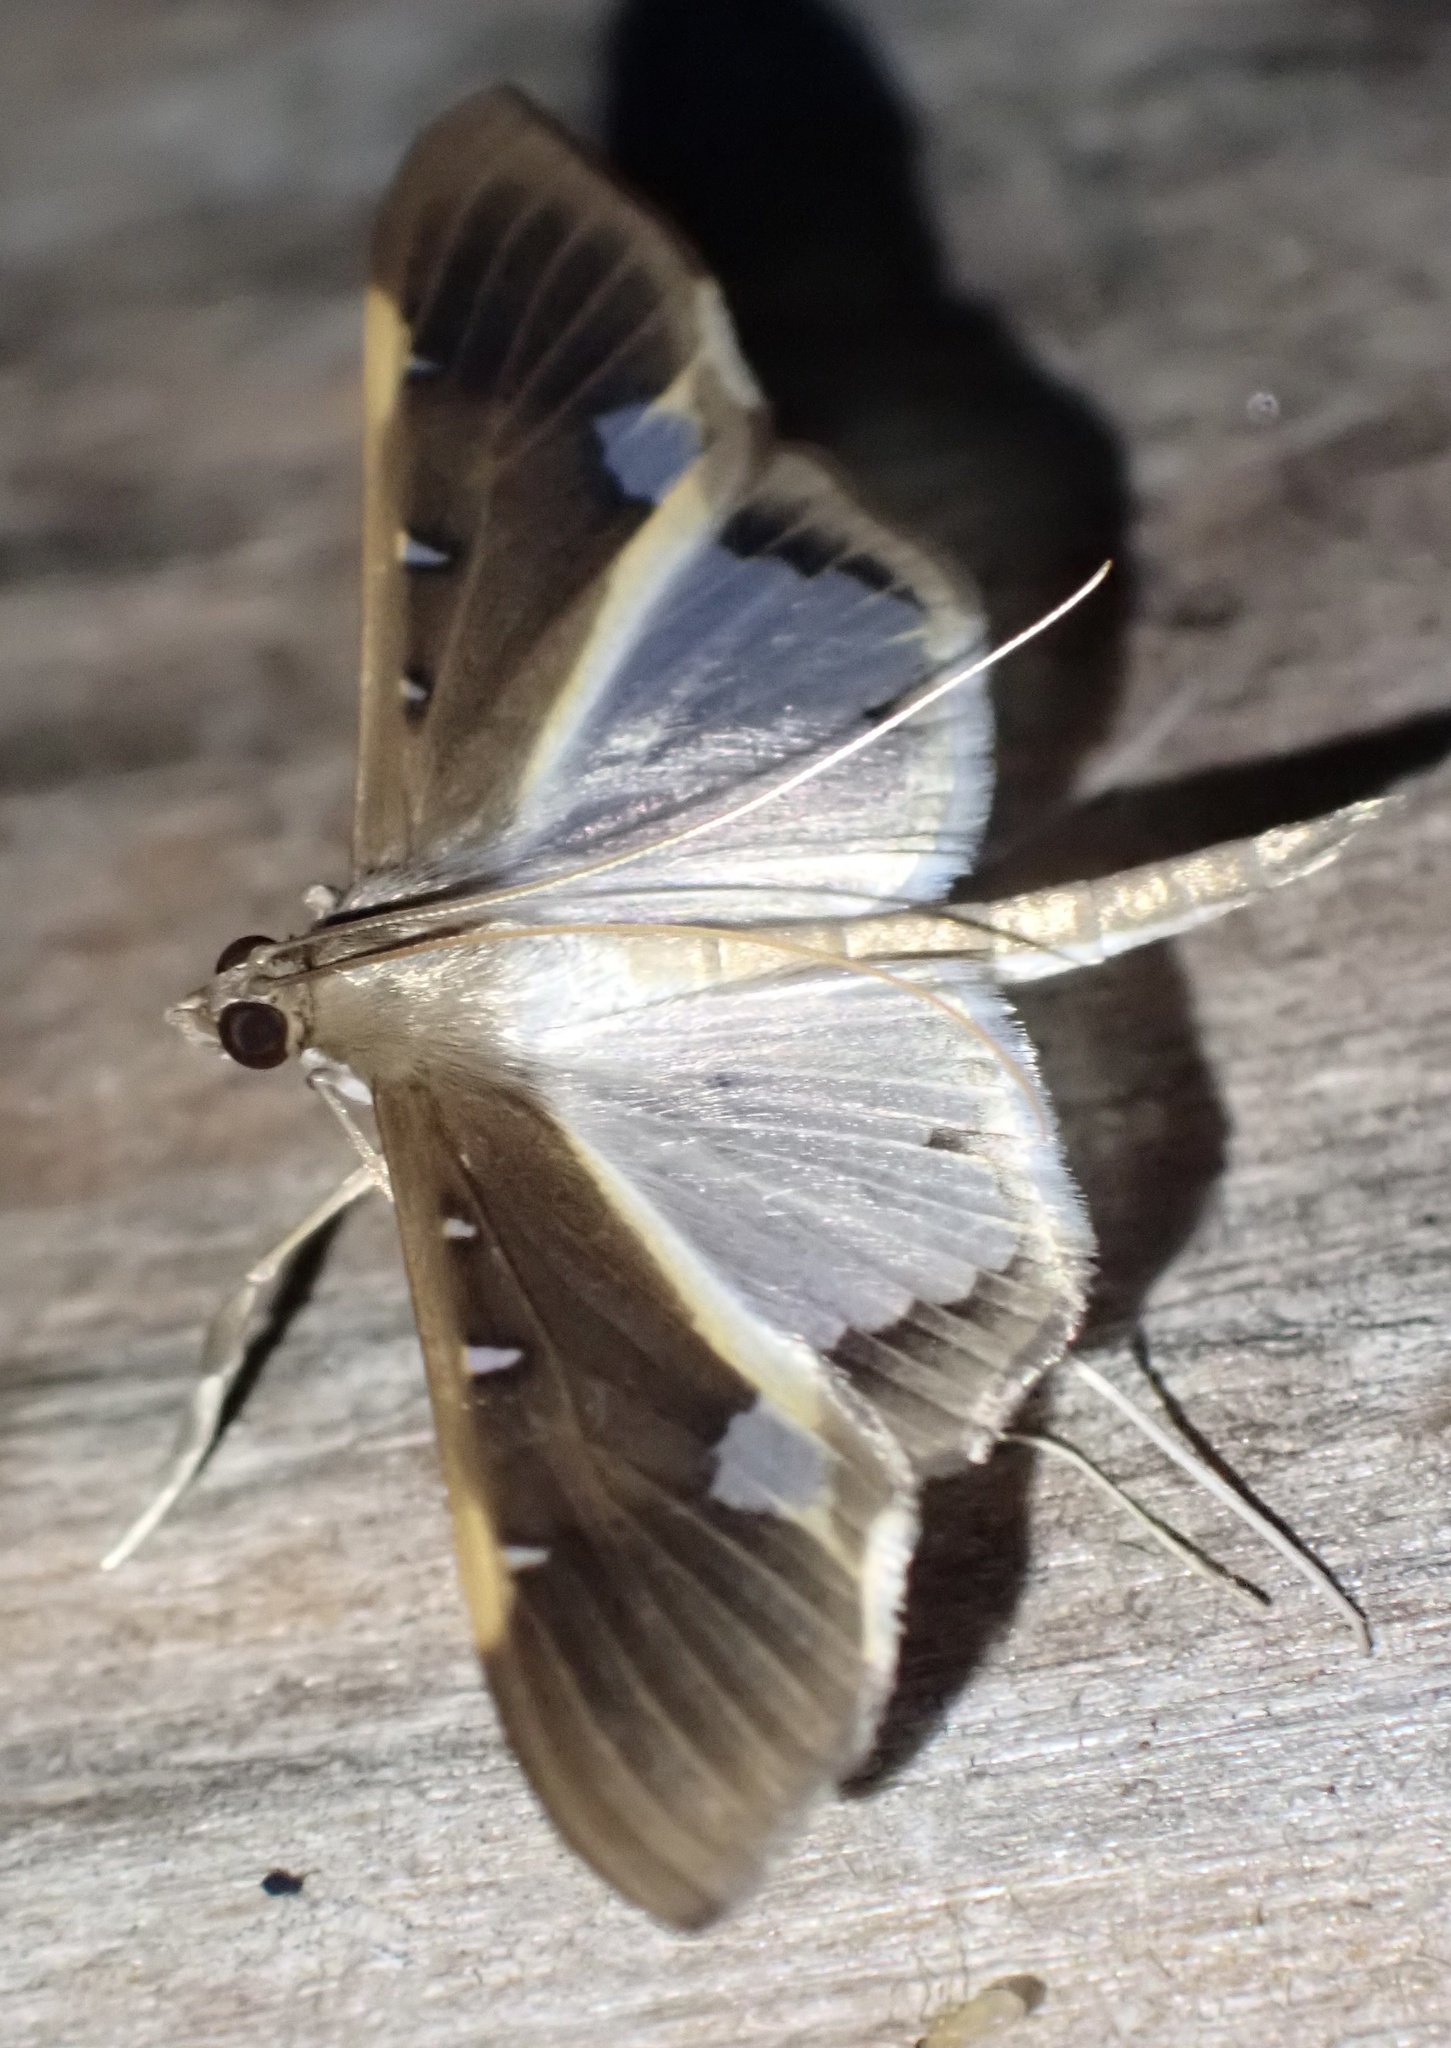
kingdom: Animalia
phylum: Arthropoda
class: Insecta
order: Lepidoptera
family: Crambidae
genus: Tipuliforma
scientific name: Tipuliforma triangulalis
